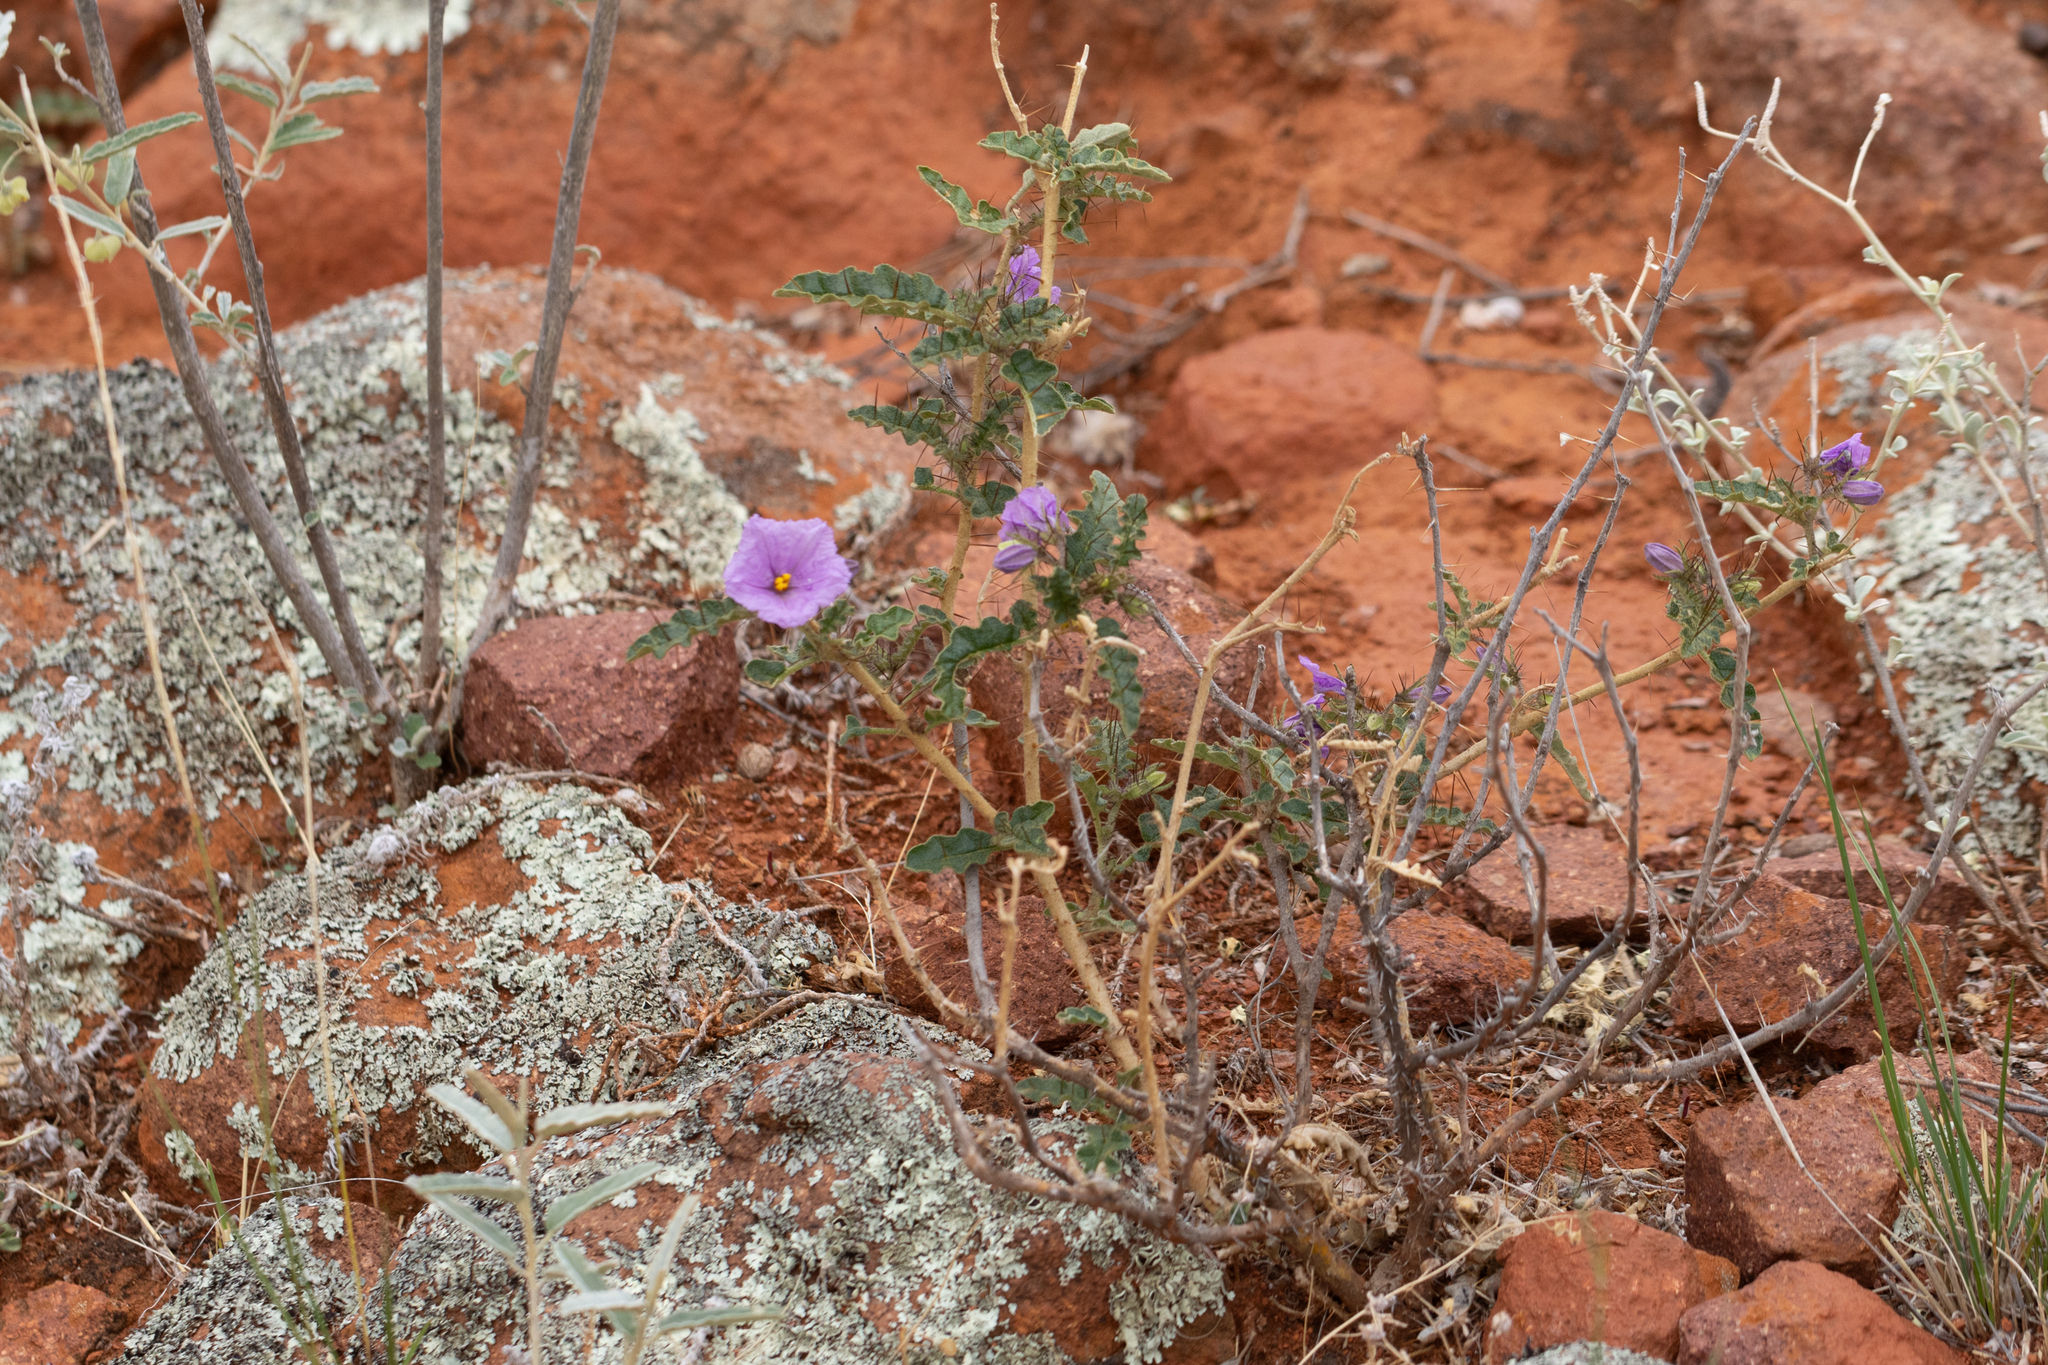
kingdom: Plantae
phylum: Tracheophyta
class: Magnoliopsida
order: Solanales
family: Solanaceae
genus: Solanum
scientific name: Solanum petrophilum
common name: Rock nightshade
